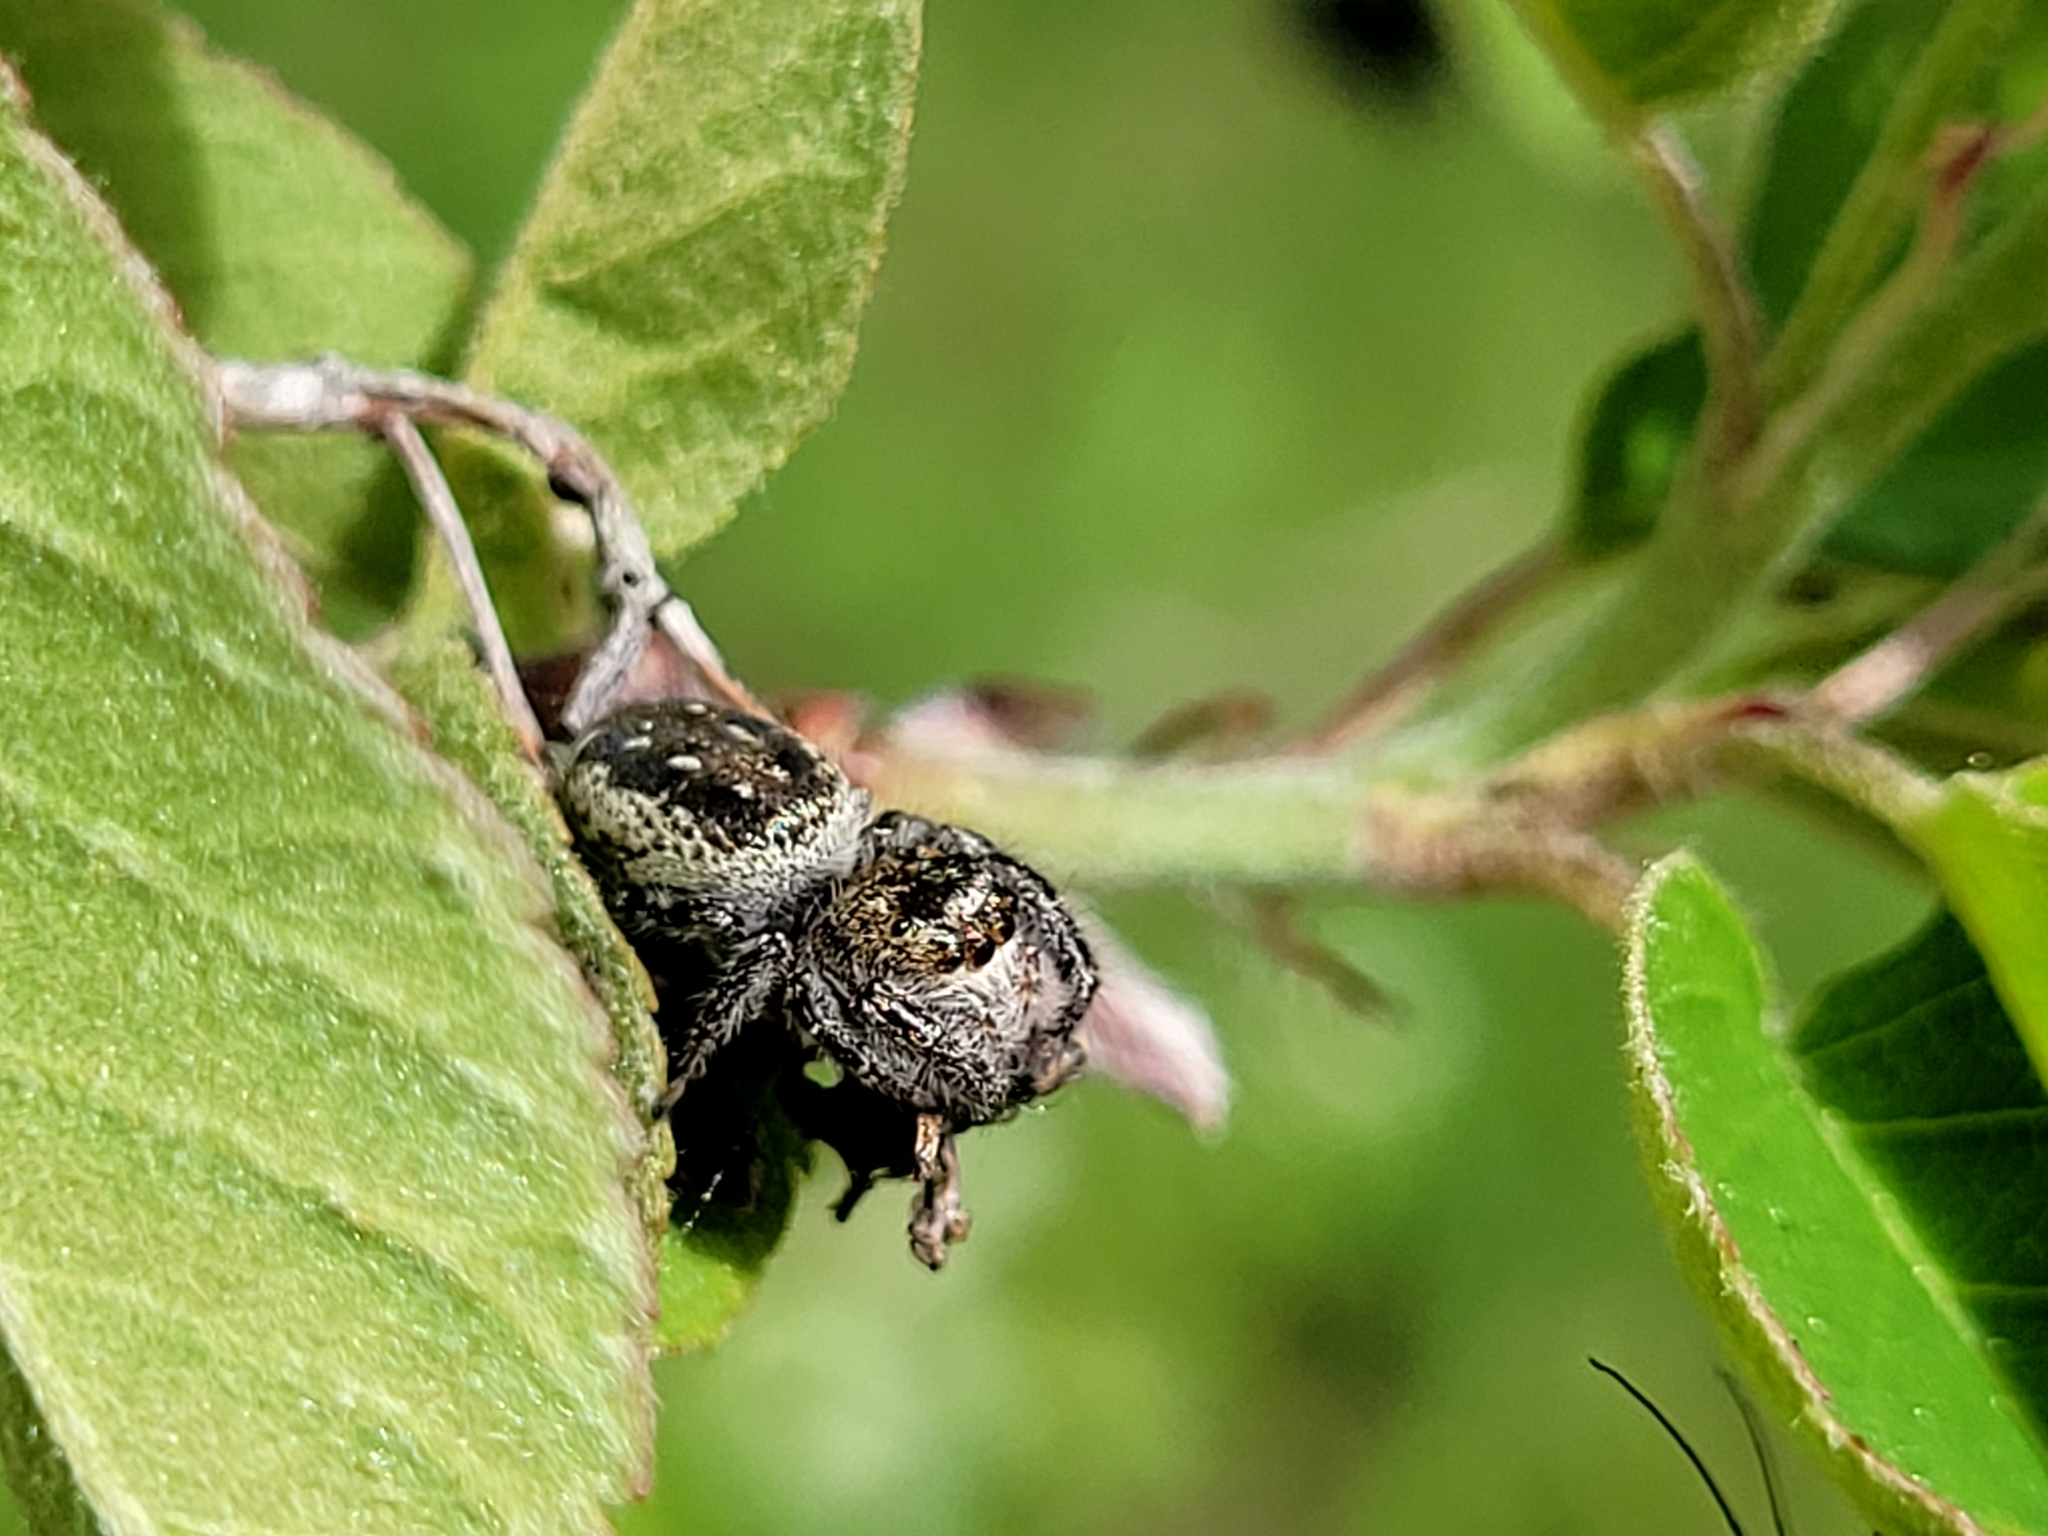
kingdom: Animalia
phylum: Arthropoda
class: Arachnida
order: Araneae
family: Salticidae
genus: Eris
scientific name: Eris militaris
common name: Bronze jumper
